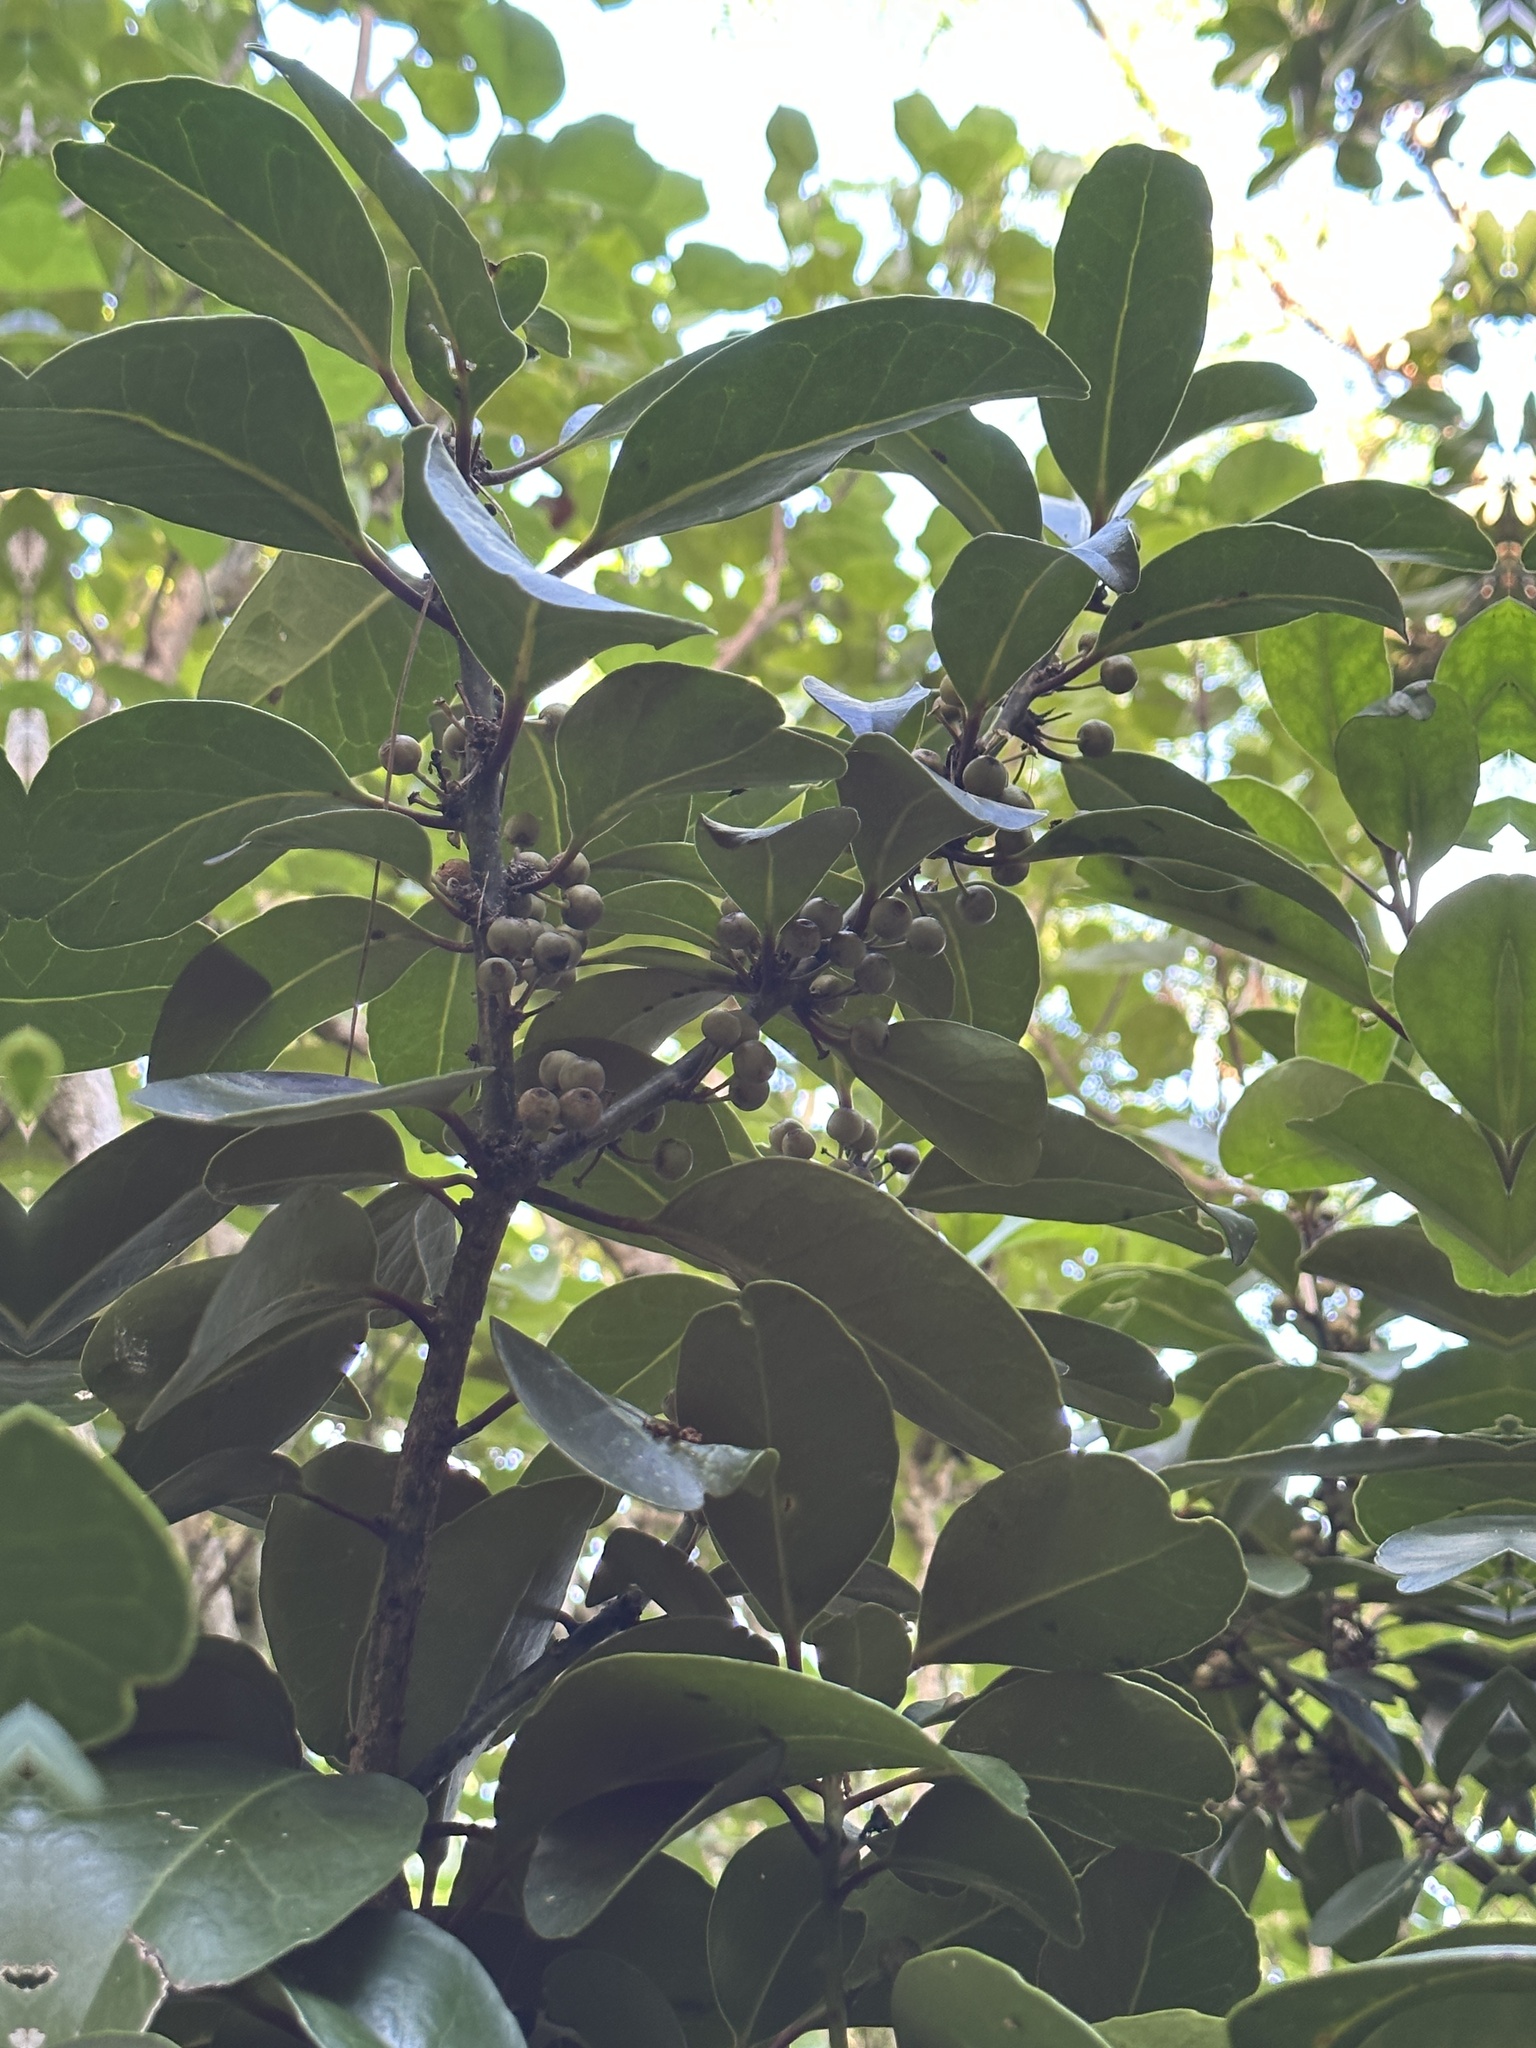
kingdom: Plantae
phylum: Tracheophyta
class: Magnoliopsida
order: Aquifoliales
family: Aquifoliaceae
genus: Ilex
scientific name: Ilex mertensii
